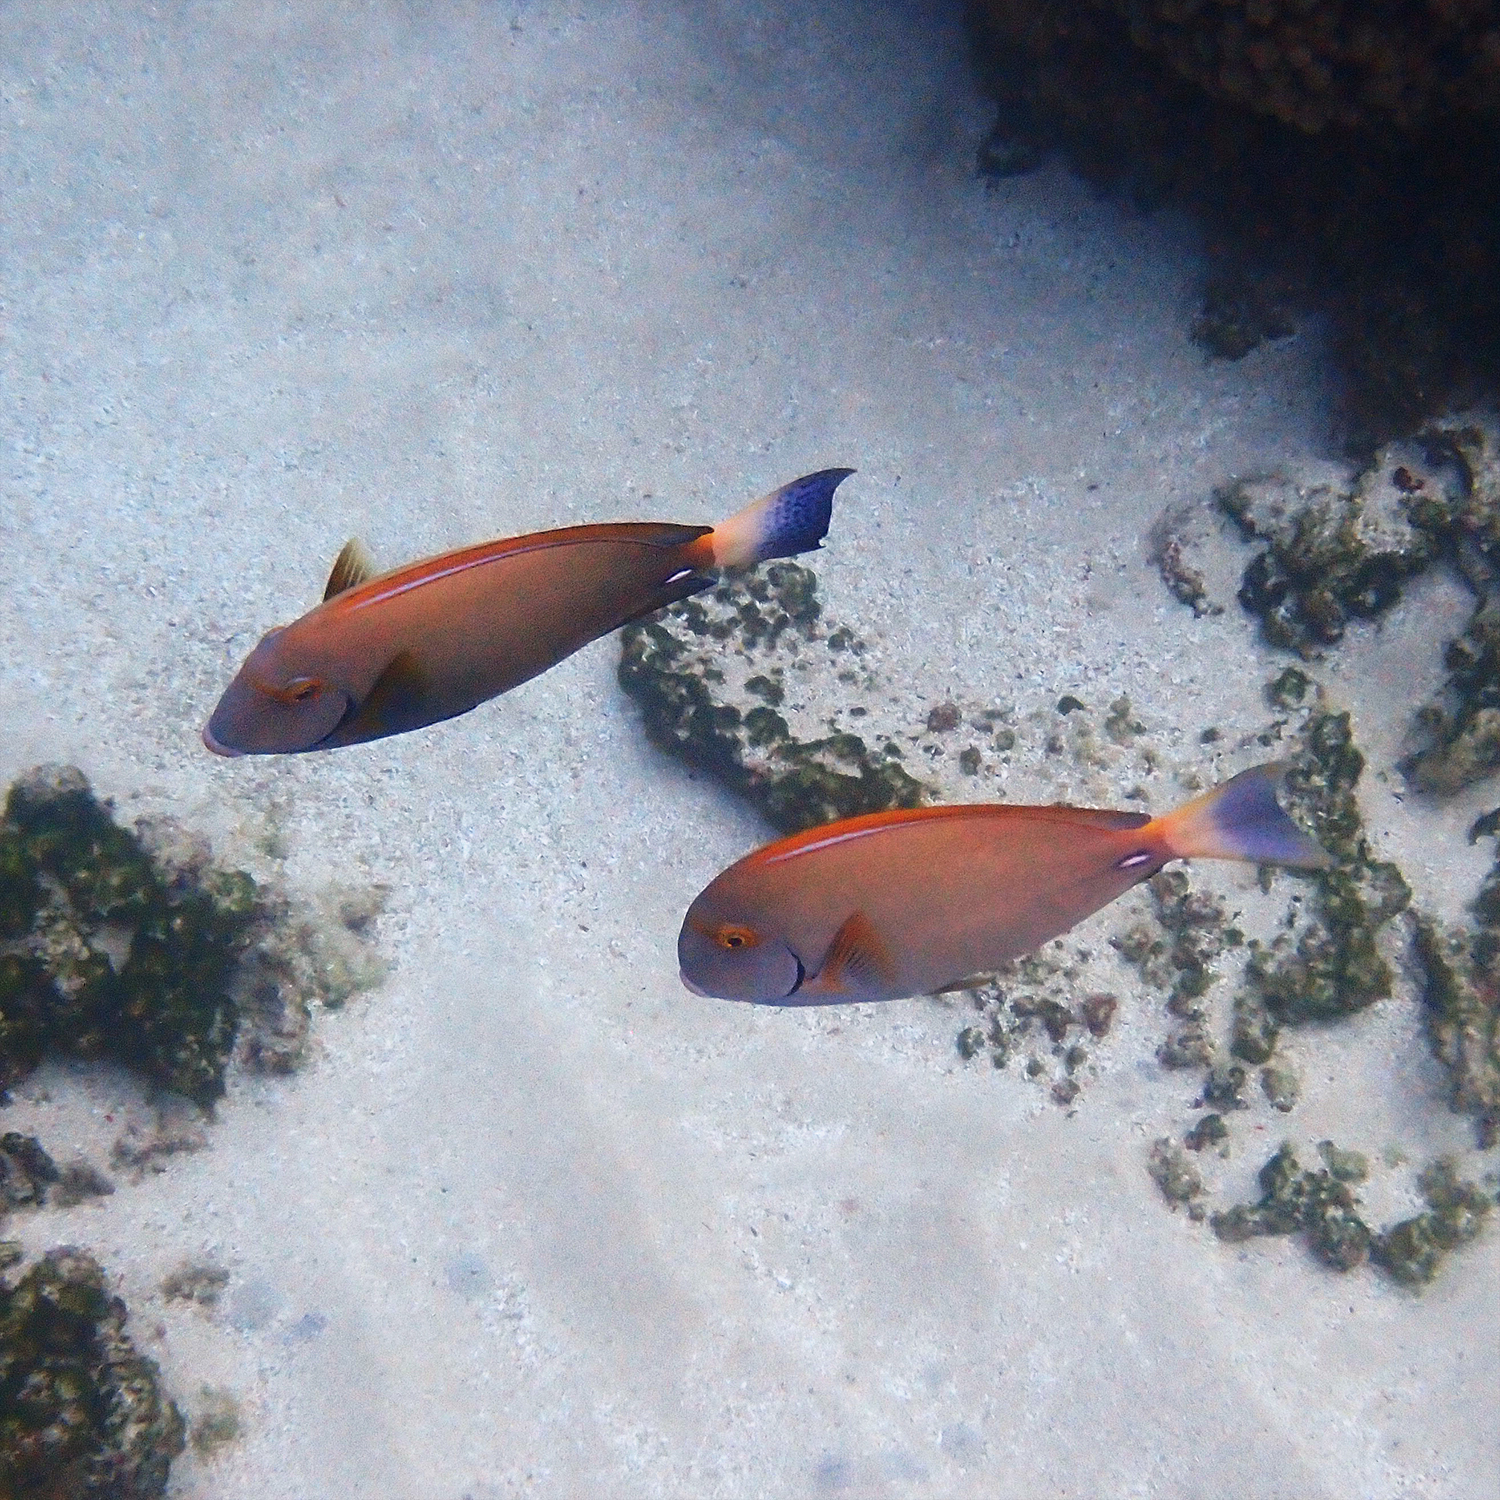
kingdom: Animalia
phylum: Chordata
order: Perciformes
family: Acanthuridae
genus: Acanthurus
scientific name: Acanthurus dussumieri
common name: Dussumier's surgeonfish
